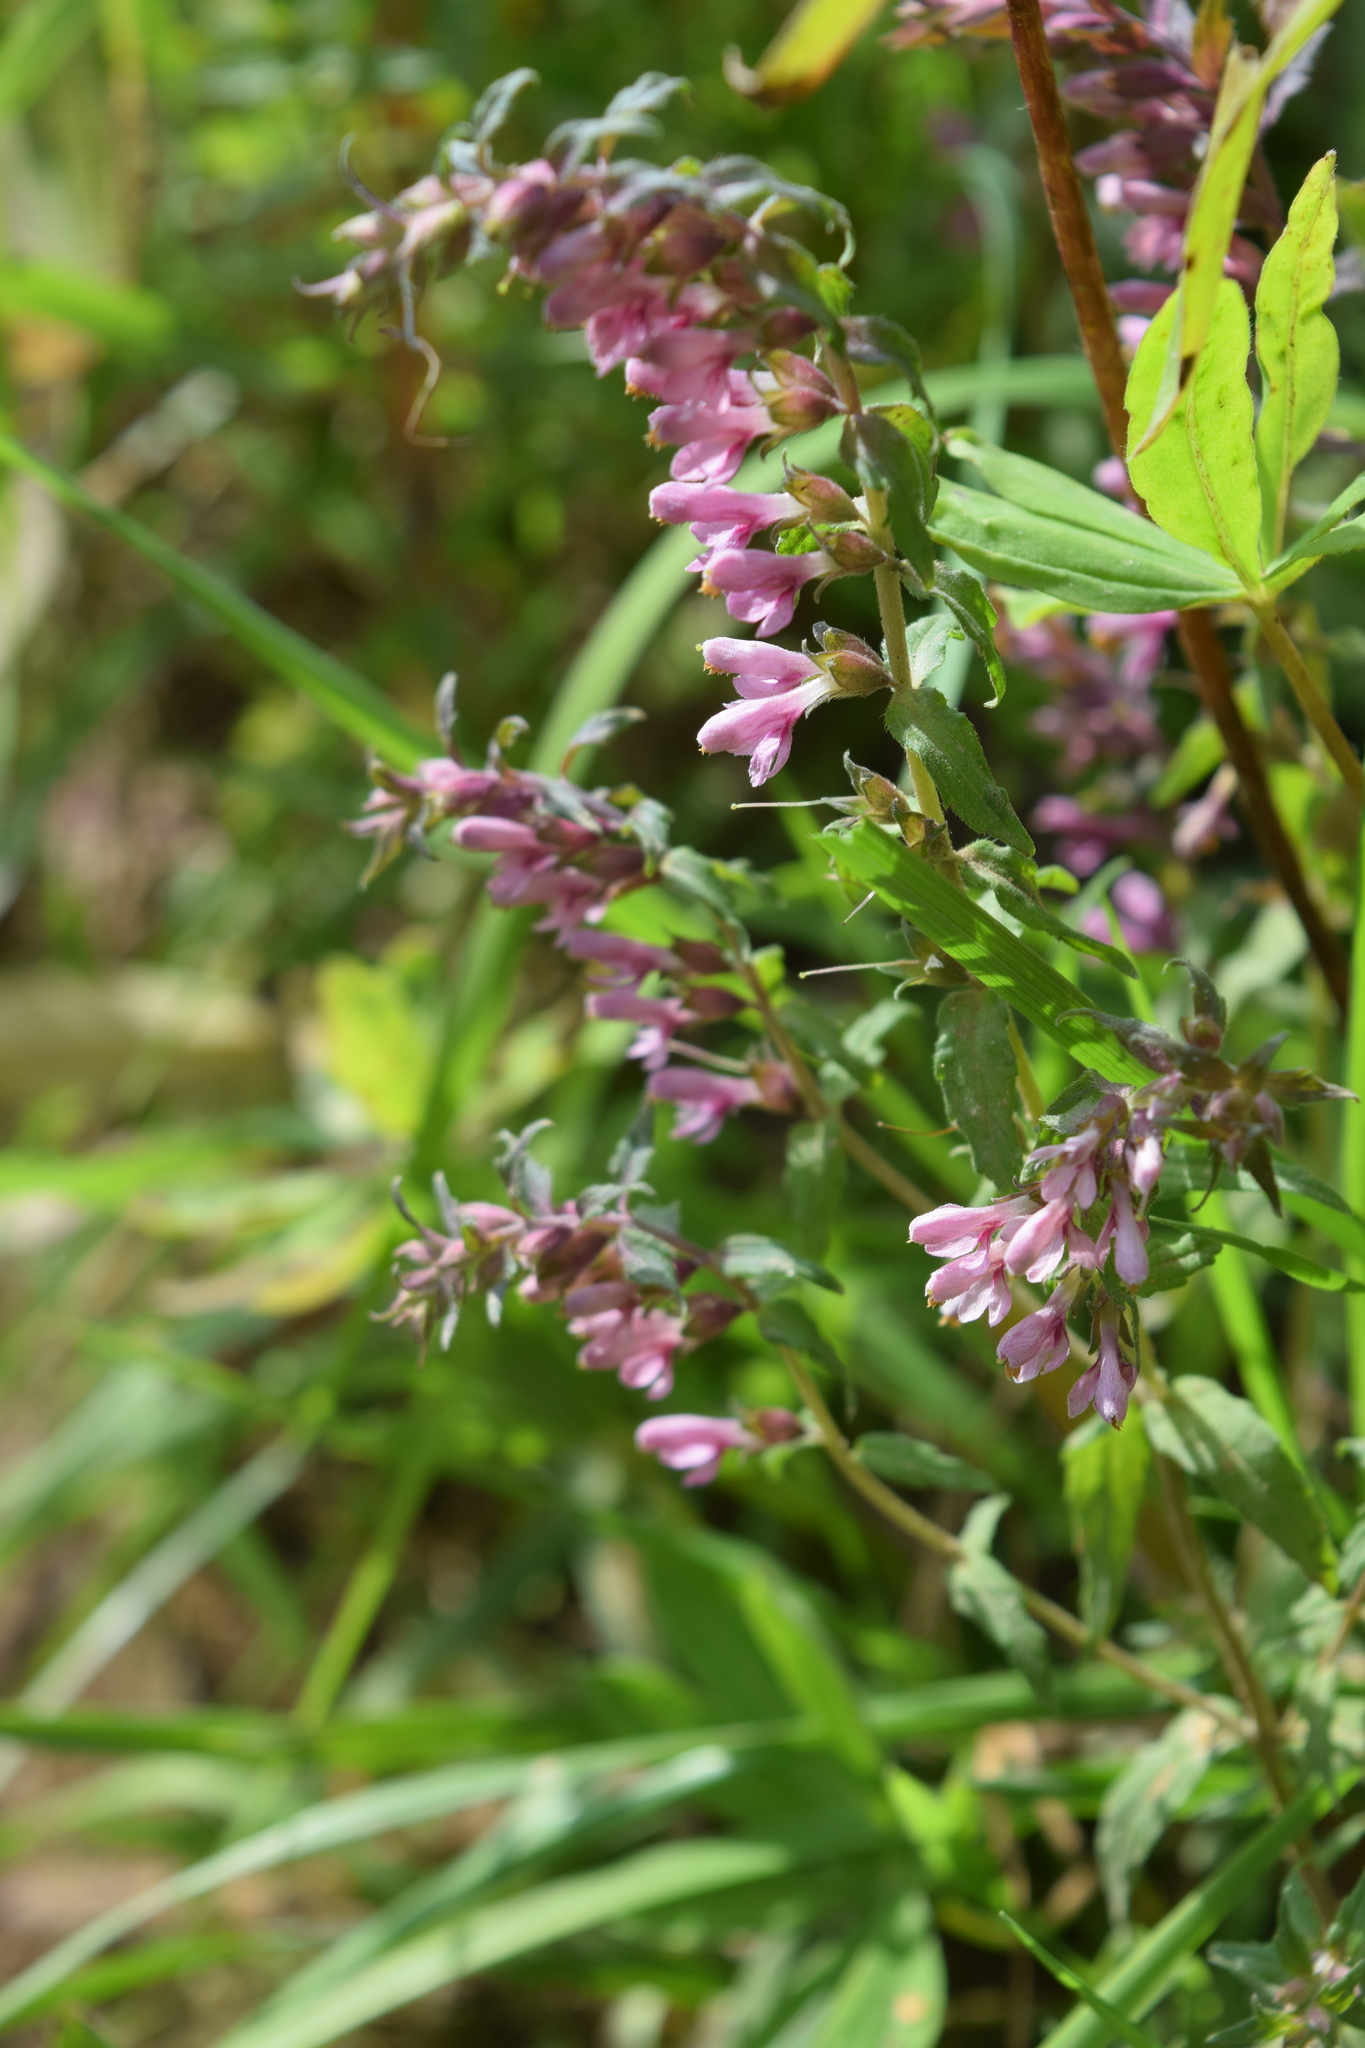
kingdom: Plantae
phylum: Tracheophyta
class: Magnoliopsida
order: Lamiales
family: Orobanchaceae
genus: Odontites
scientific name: Odontites vulgaris
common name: Broomrape
